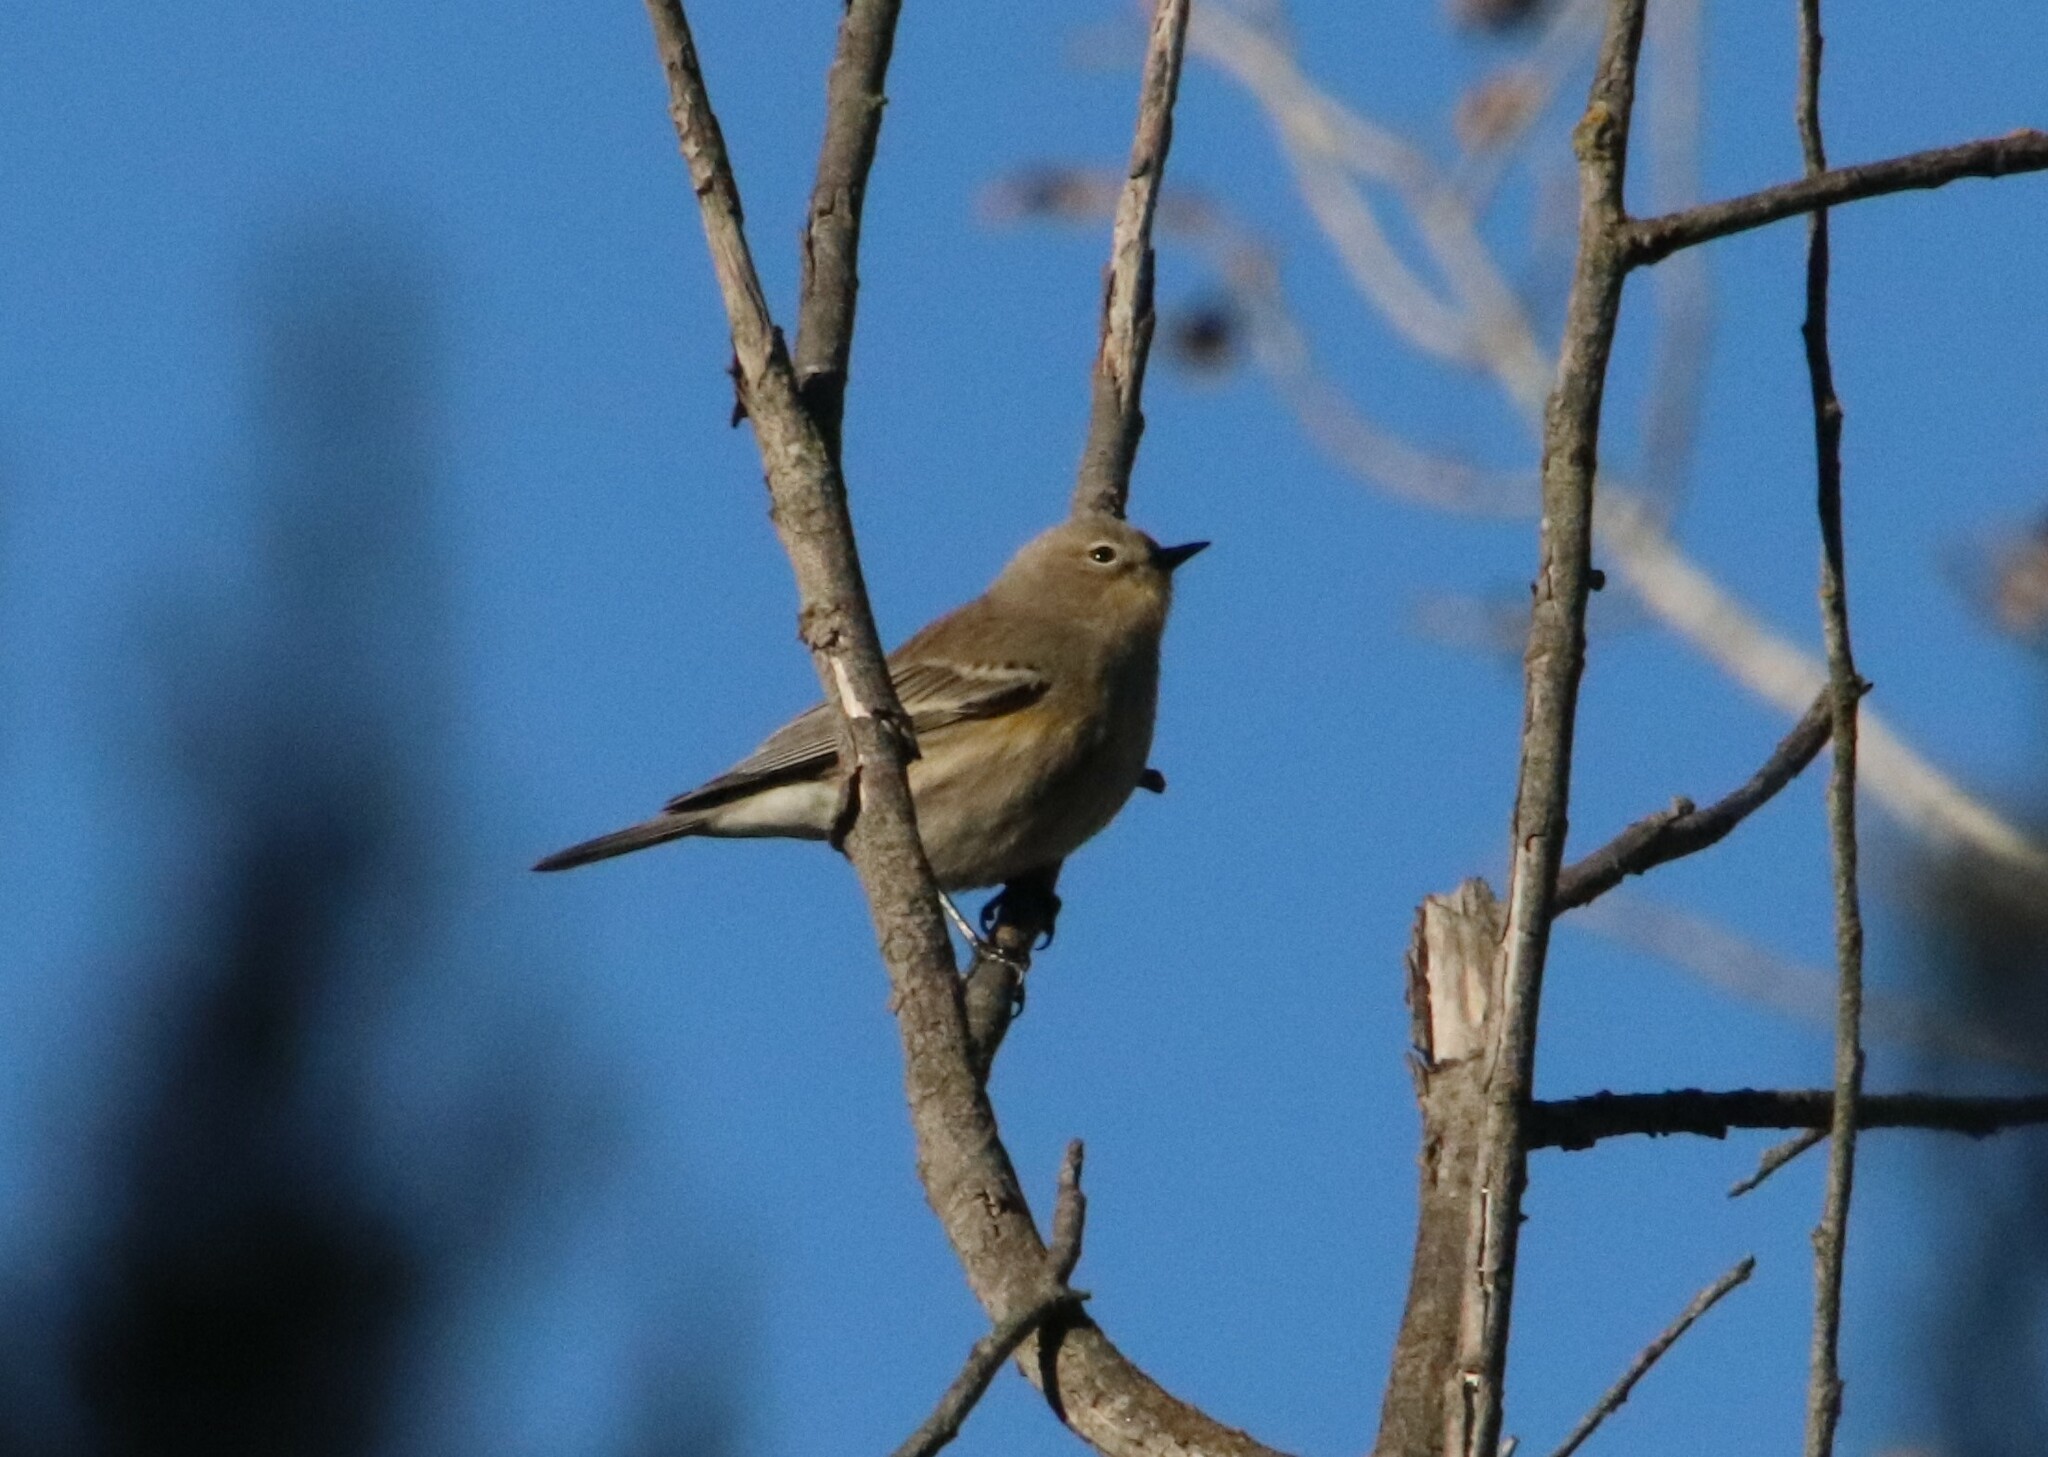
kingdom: Animalia
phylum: Chordata
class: Aves
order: Passeriformes
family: Parulidae
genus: Setophaga
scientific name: Setophaga auduboni
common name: Audubon's warbler
